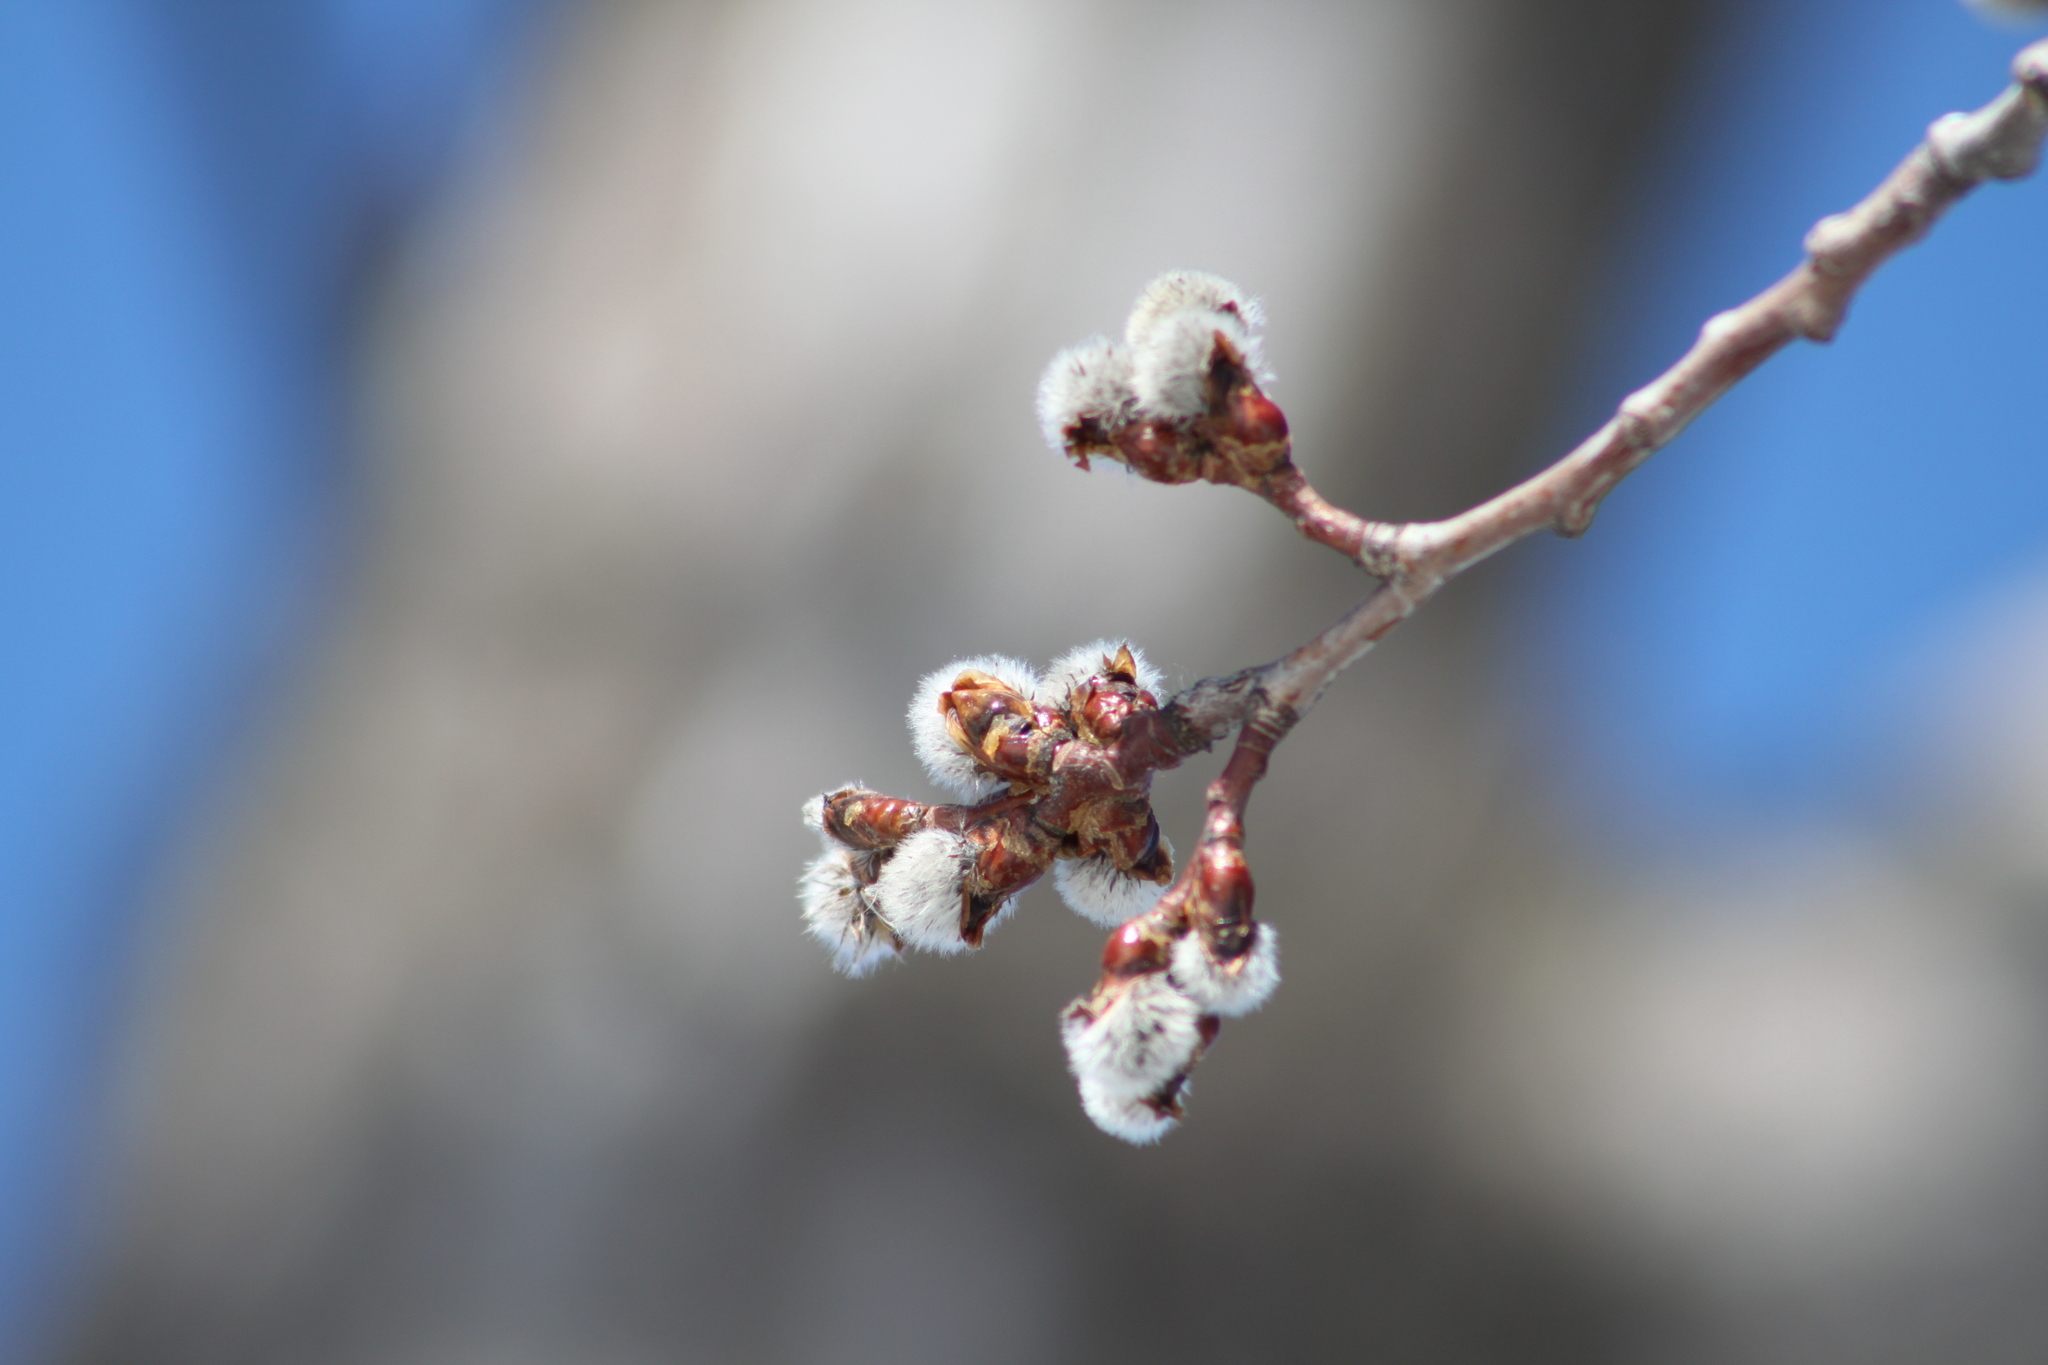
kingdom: Plantae
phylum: Tracheophyta
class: Magnoliopsida
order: Malpighiales
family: Salicaceae
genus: Populus
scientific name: Populus tremuloides
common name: Quaking aspen
